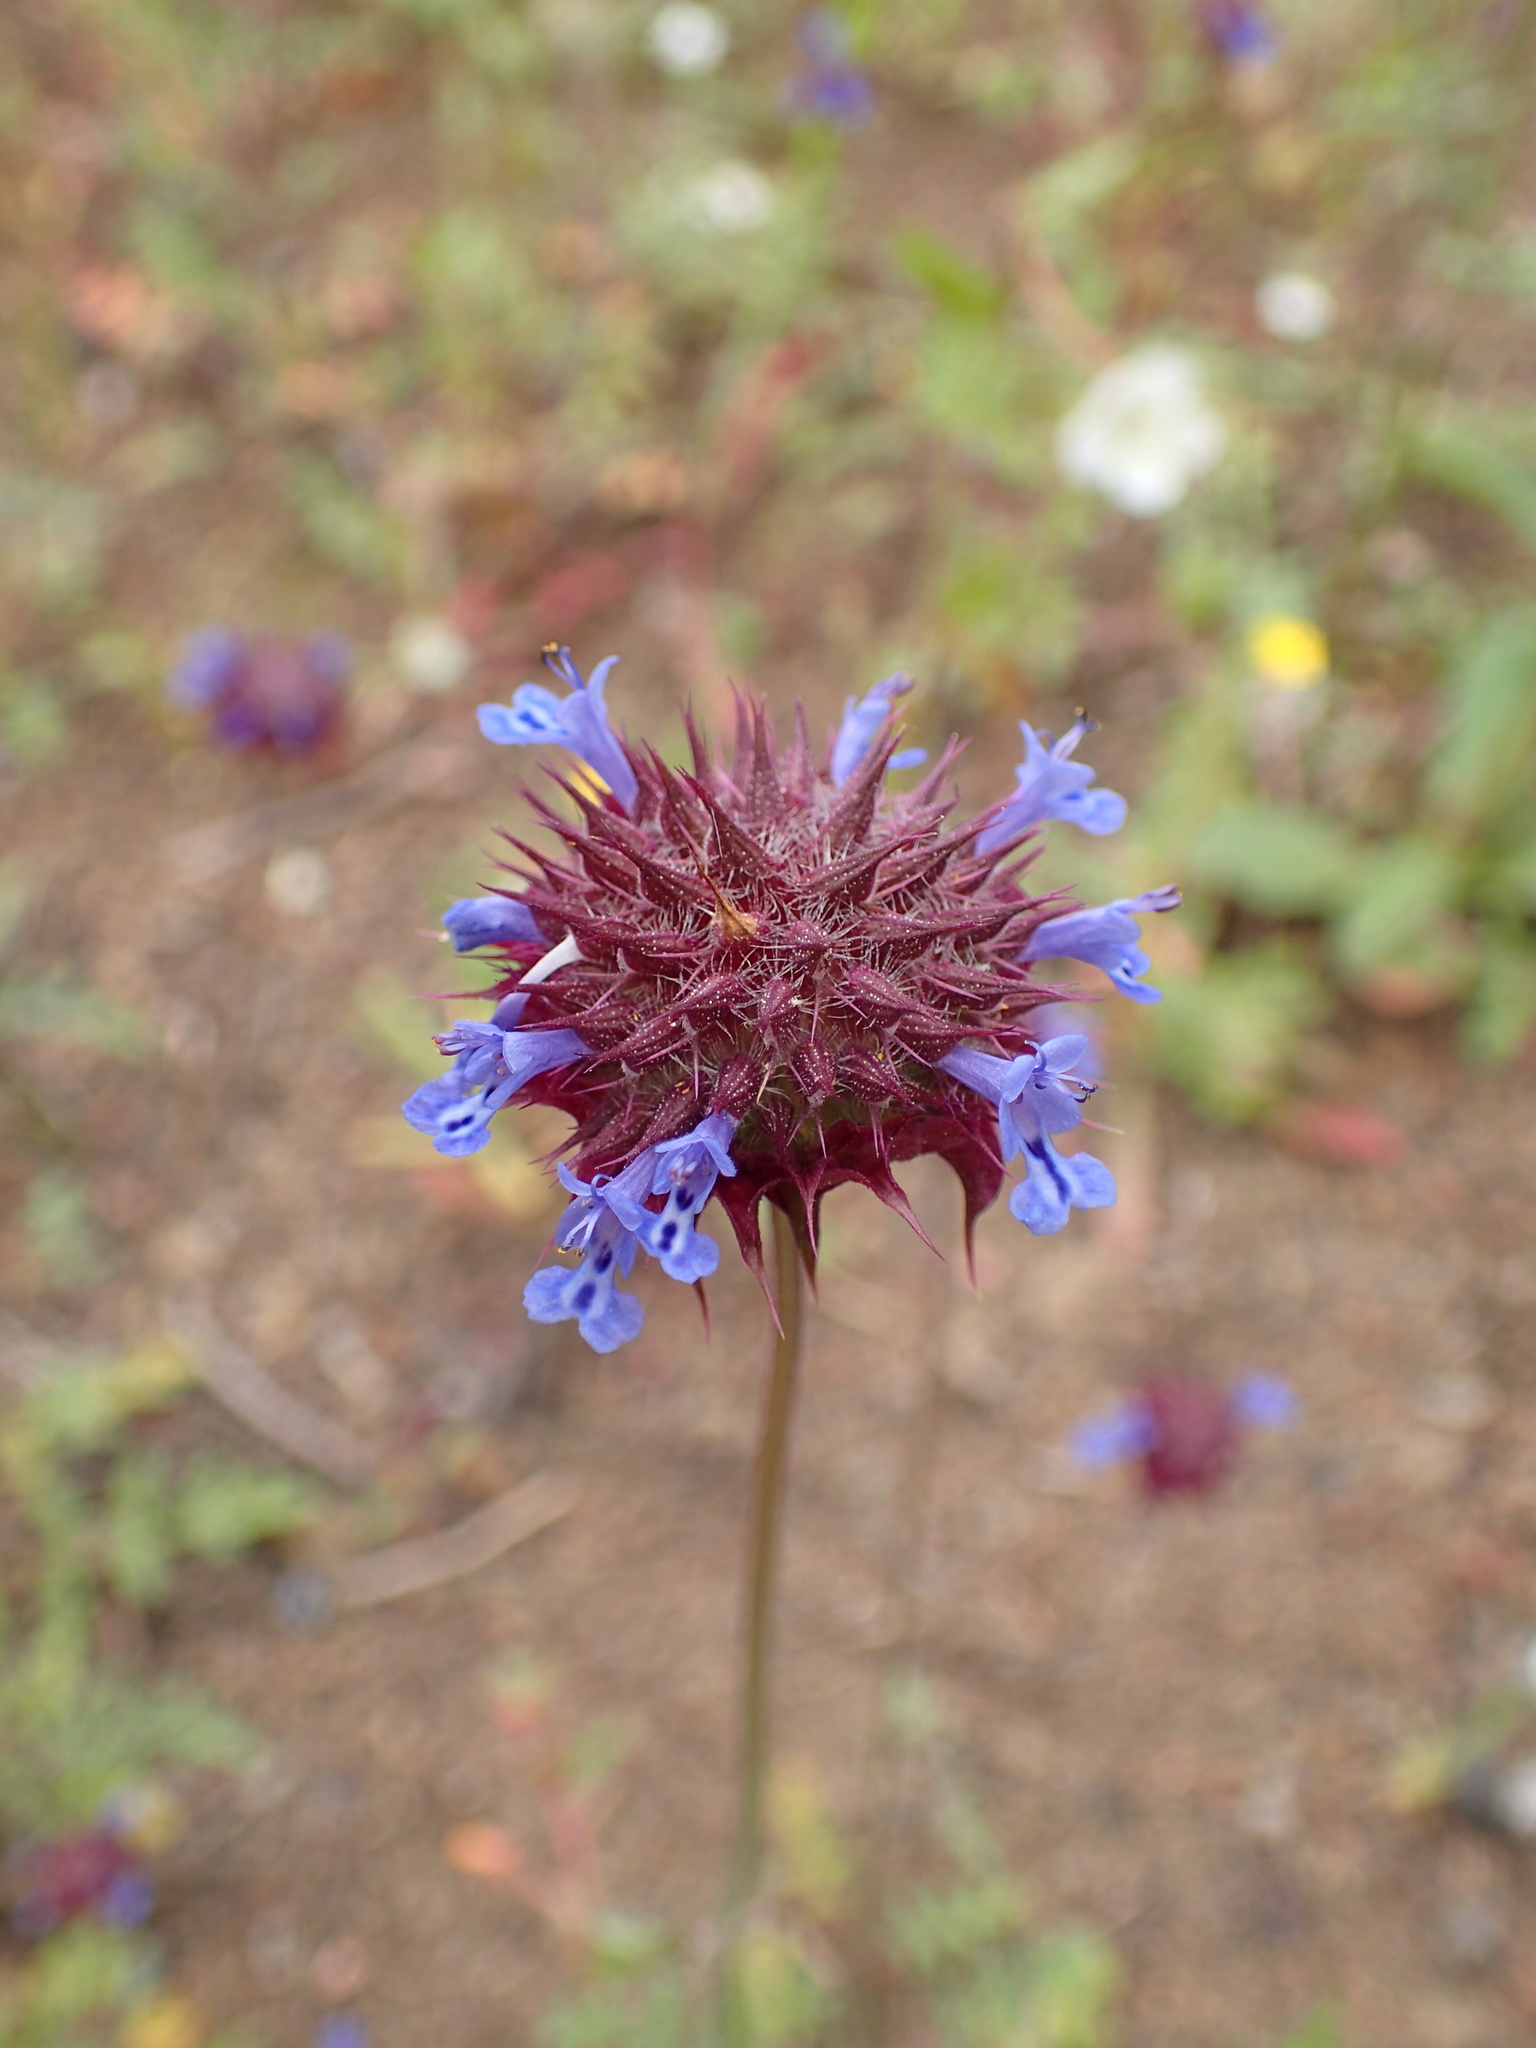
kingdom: Plantae
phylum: Tracheophyta
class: Magnoliopsida
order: Lamiales
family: Lamiaceae
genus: Salvia
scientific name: Salvia columbariae
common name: Chia
